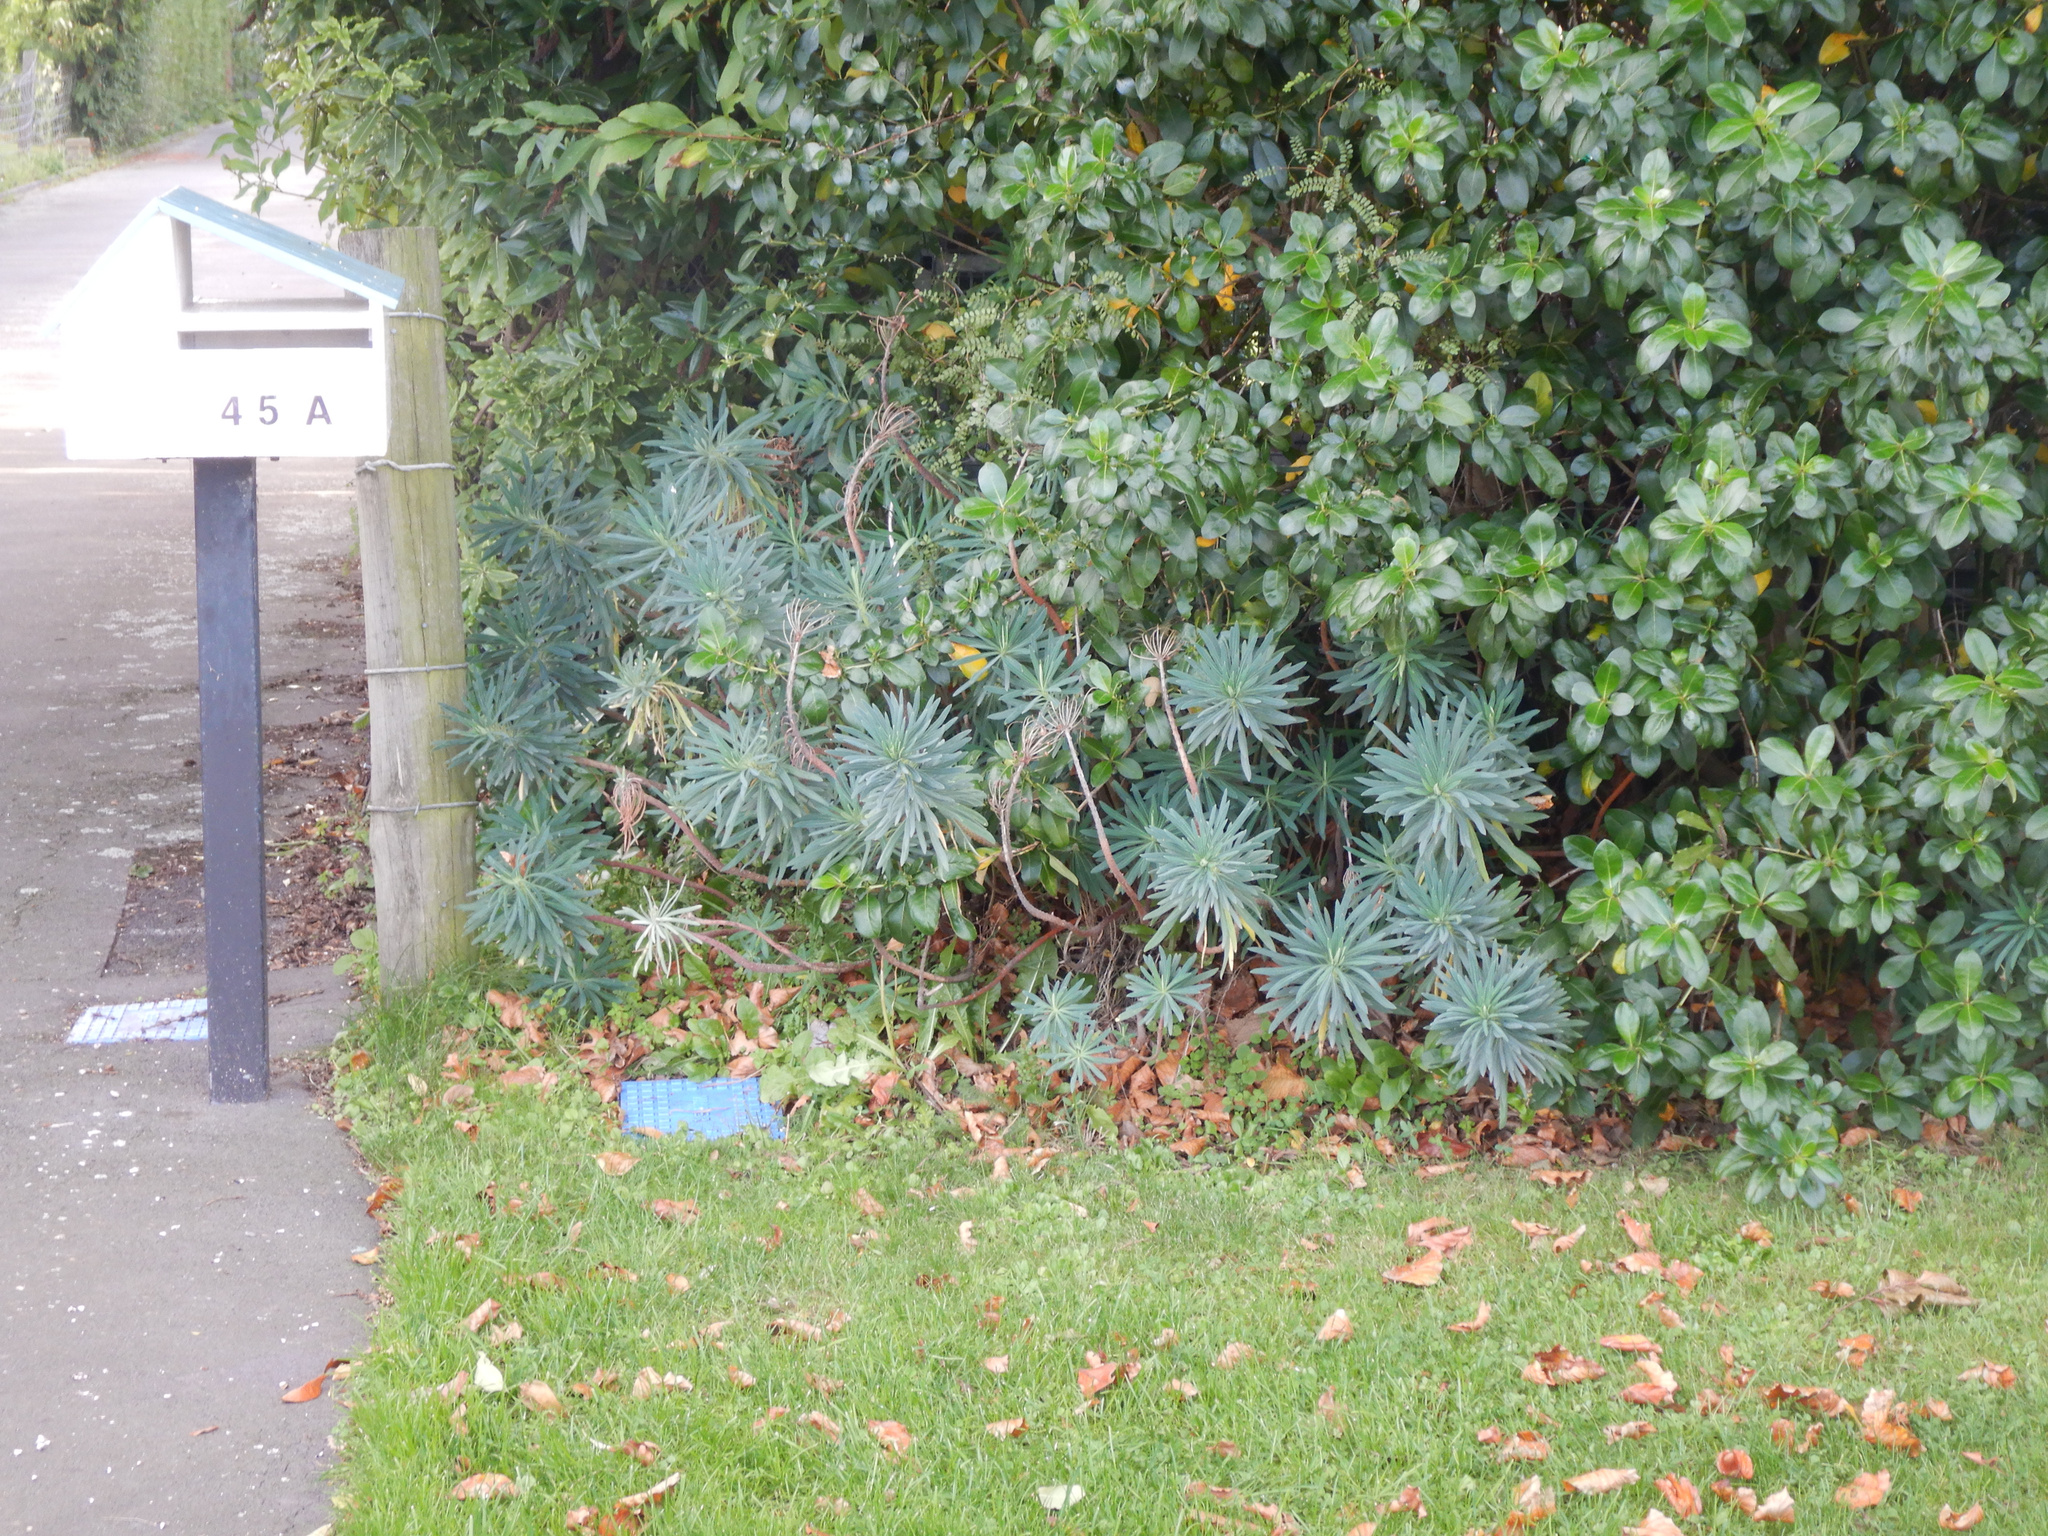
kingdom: Plantae
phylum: Tracheophyta
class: Magnoliopsida
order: Malpighiales
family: Euphorbiaceae
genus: Euphorbia
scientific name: Euphorbia characias
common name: Mediterranean spurge
